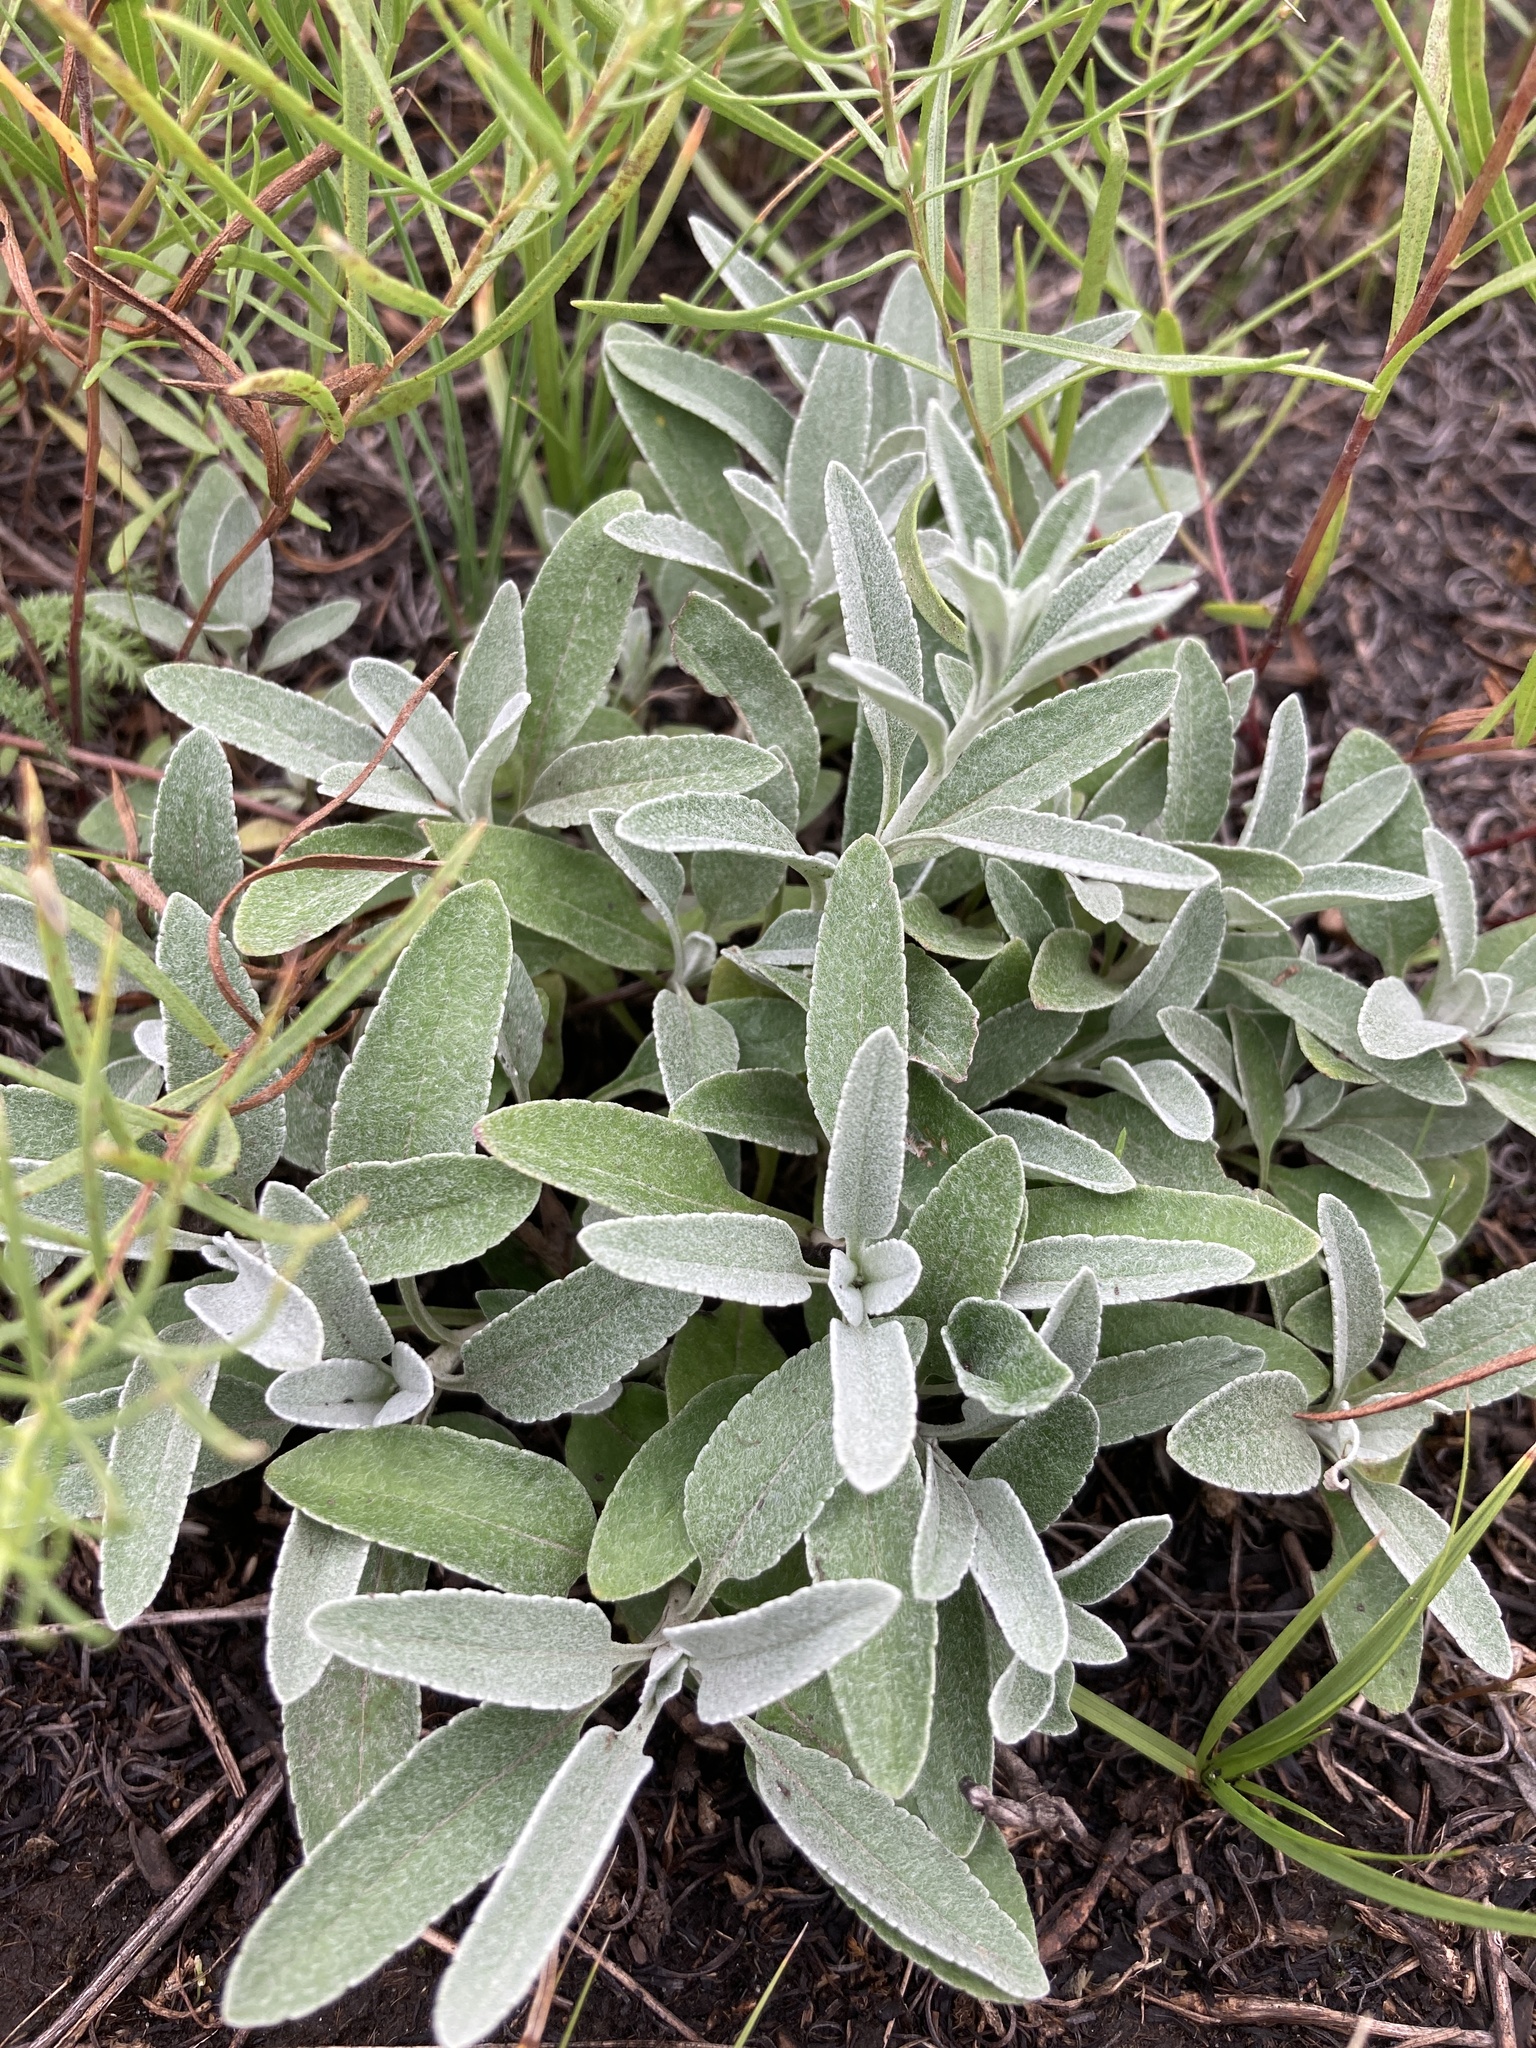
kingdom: Plantae
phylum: Tracheophyta
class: Magnoliopsida
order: Lamiales
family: Plantaginaceae
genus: Veronica
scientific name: Veronica incana
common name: Silver speedwell
